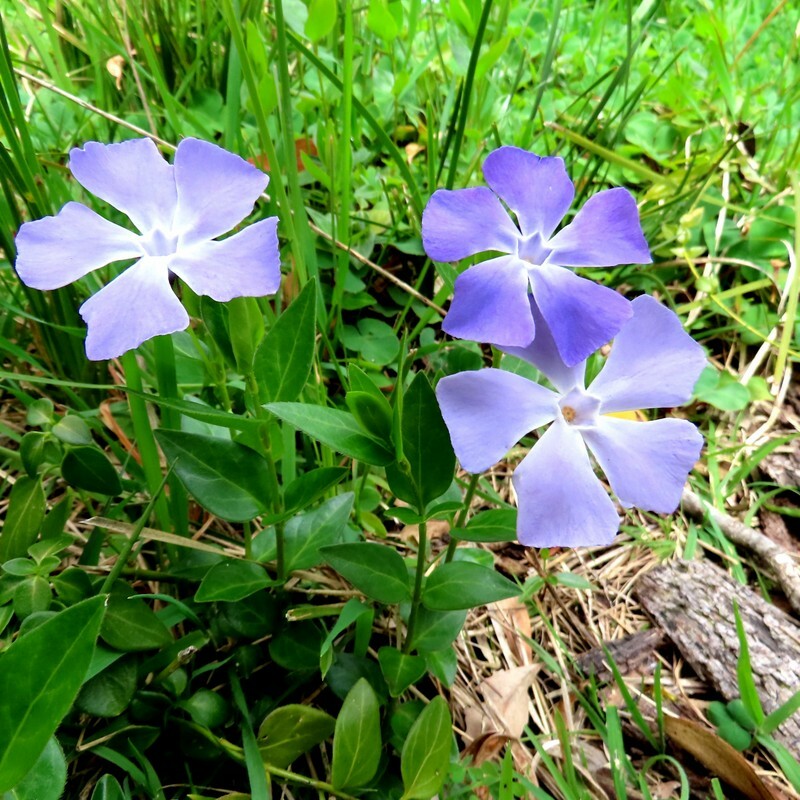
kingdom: Plantae
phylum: Tracheophyta
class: Magnoliopsida
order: Gentianales
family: Apocynaceae
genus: Vinca
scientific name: Vinca major
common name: Greater periwinkle
